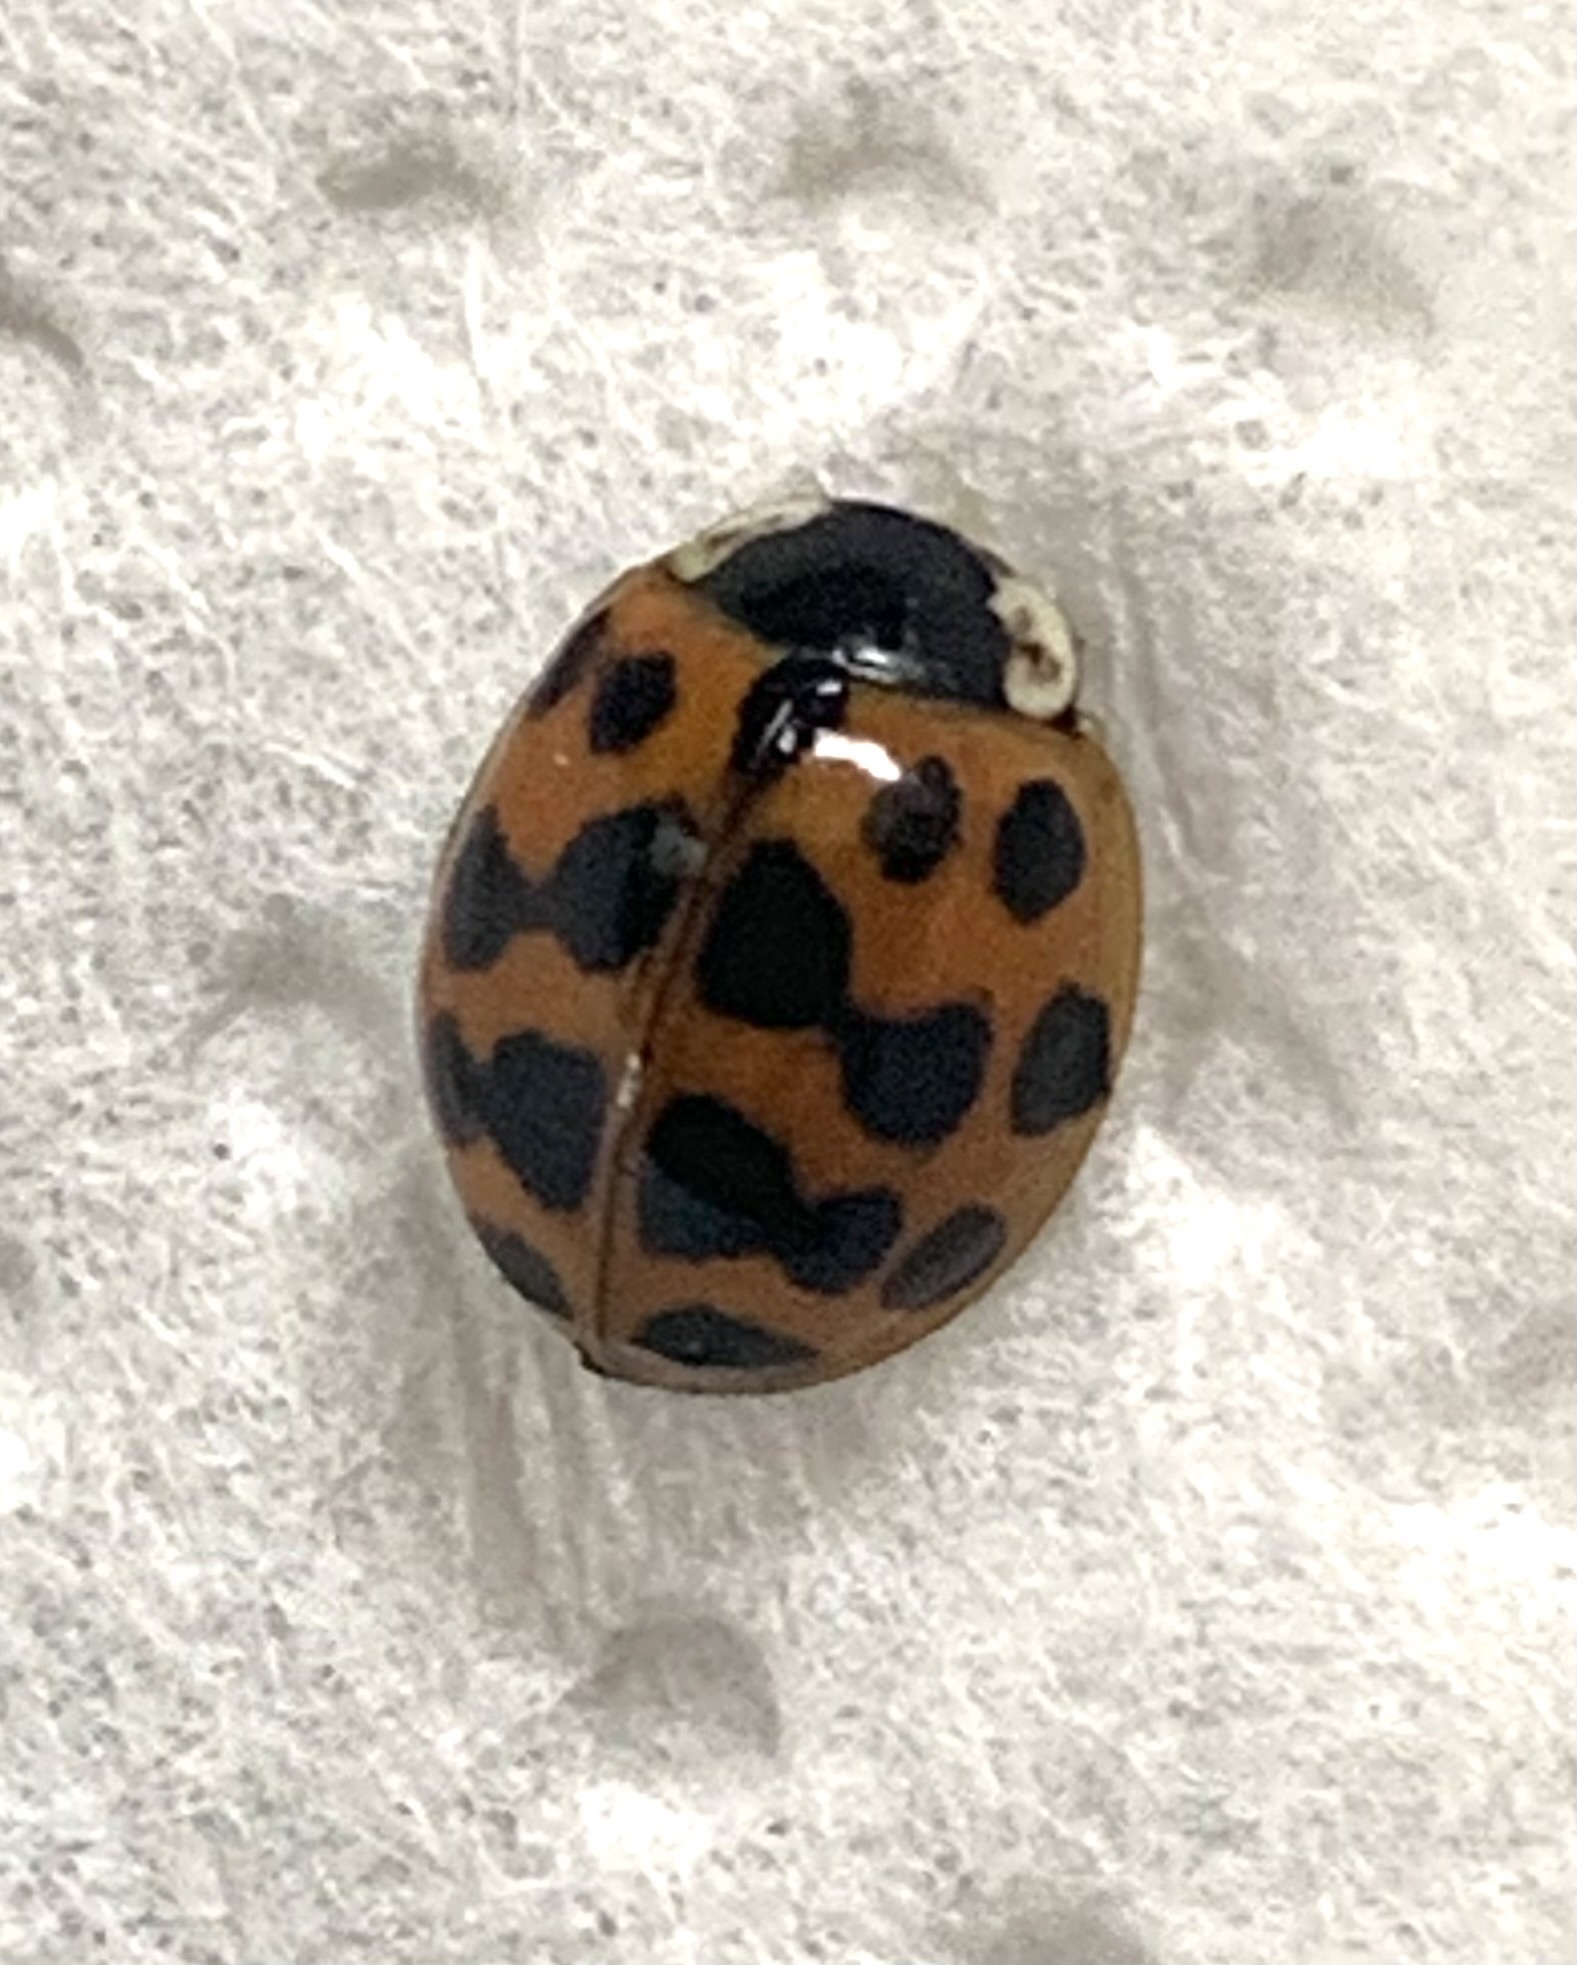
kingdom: Animalia
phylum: Arthropoda
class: Insecta
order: Coleoptera
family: Coccinellidae
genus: Harmonia
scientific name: Harmonia axyridis
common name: Harlequin ladybird
